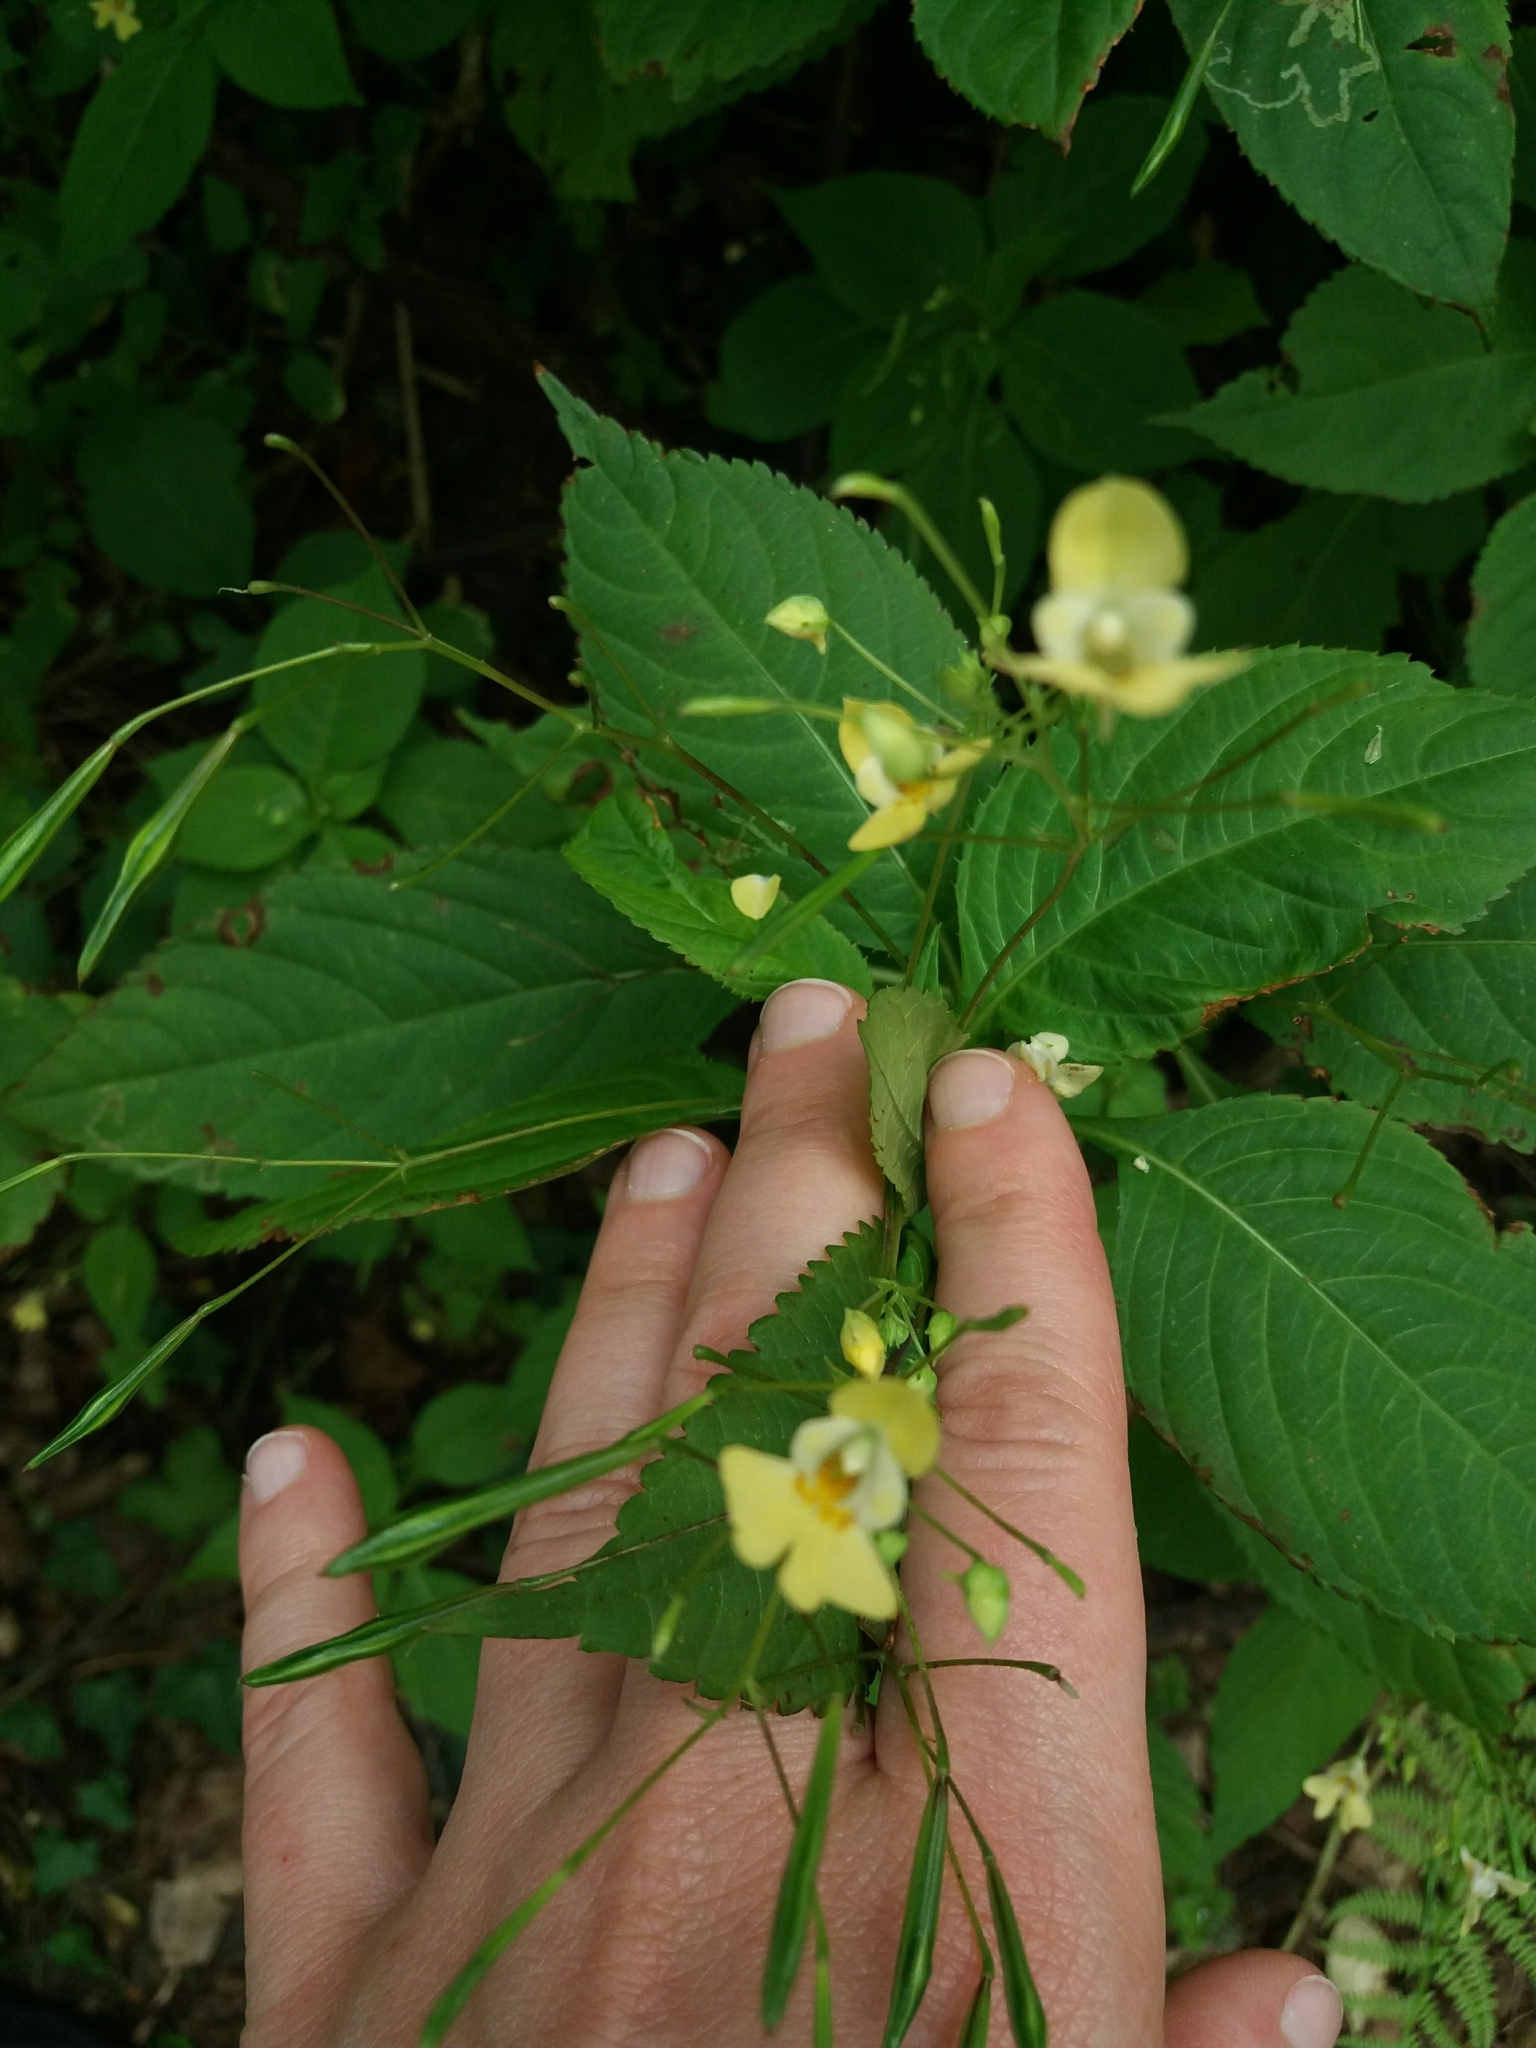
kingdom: Plantae
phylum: Tracheophyta
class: Magnoliopsida
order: Ericales
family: Balsaminaceae
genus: Impatiens
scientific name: Impatiens parviflora
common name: Small balsam
